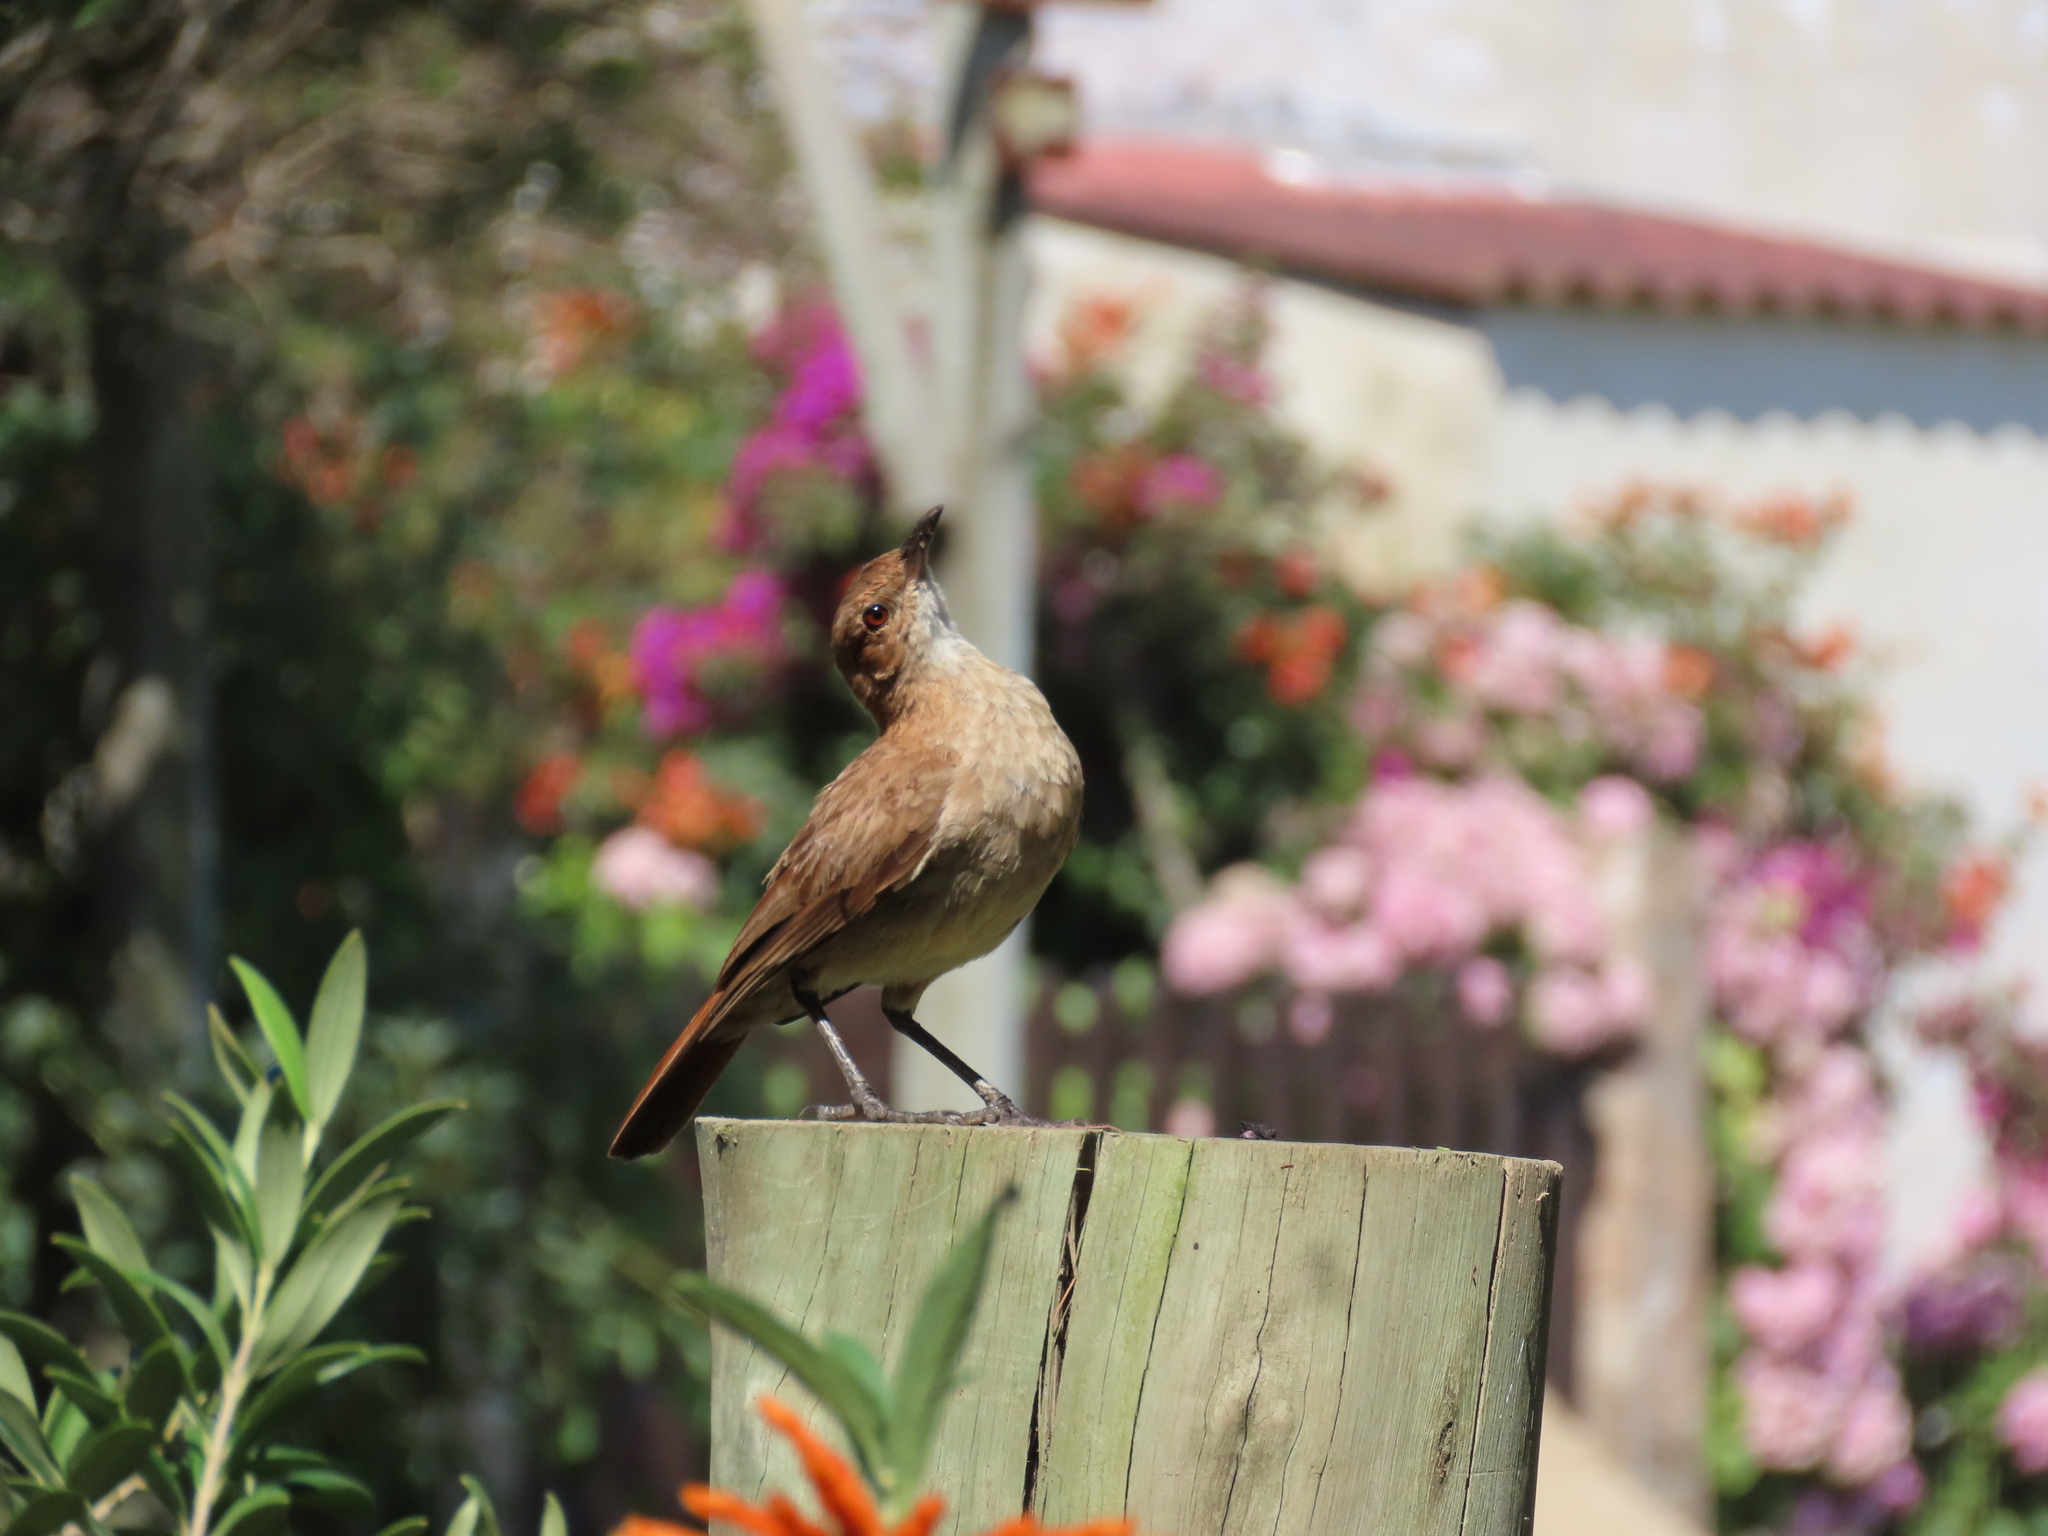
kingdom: Animalia
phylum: Chordata
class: Aves
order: Passeriformes
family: Furnariidae
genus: Furnarius
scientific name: Furnarius rufus
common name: Rufous hornero
